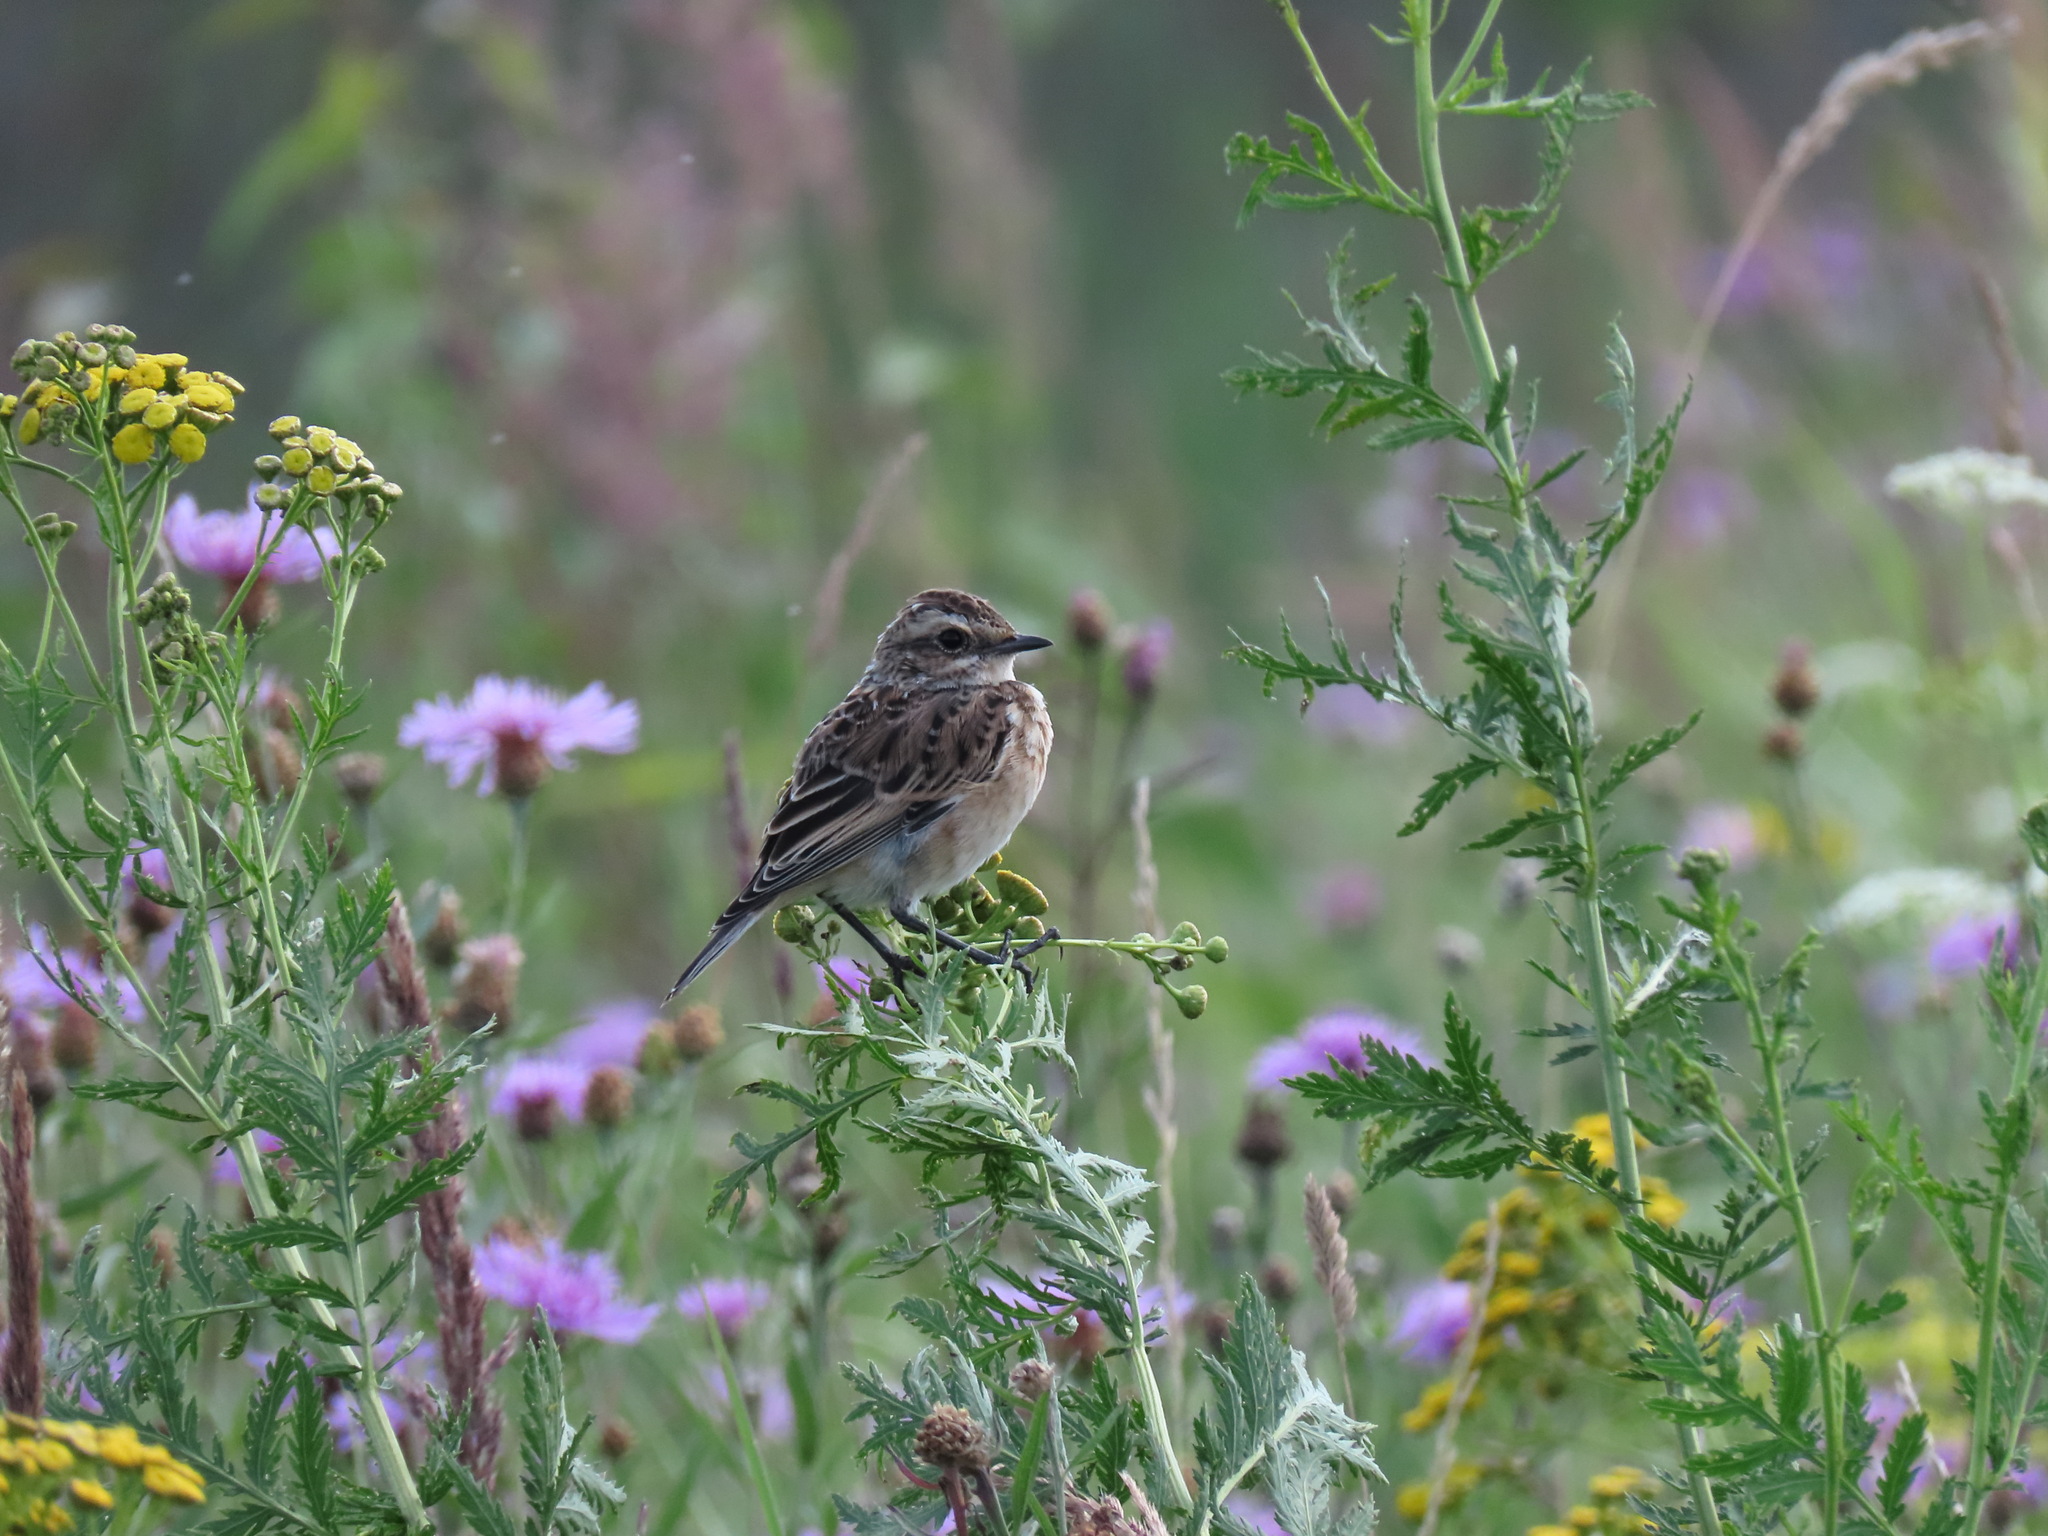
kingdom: Animalia
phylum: Chordata
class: Aves
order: Passeriformes
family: Muscicapidae
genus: Saxicola
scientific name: Saxicola rubetra
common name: Whinchat
